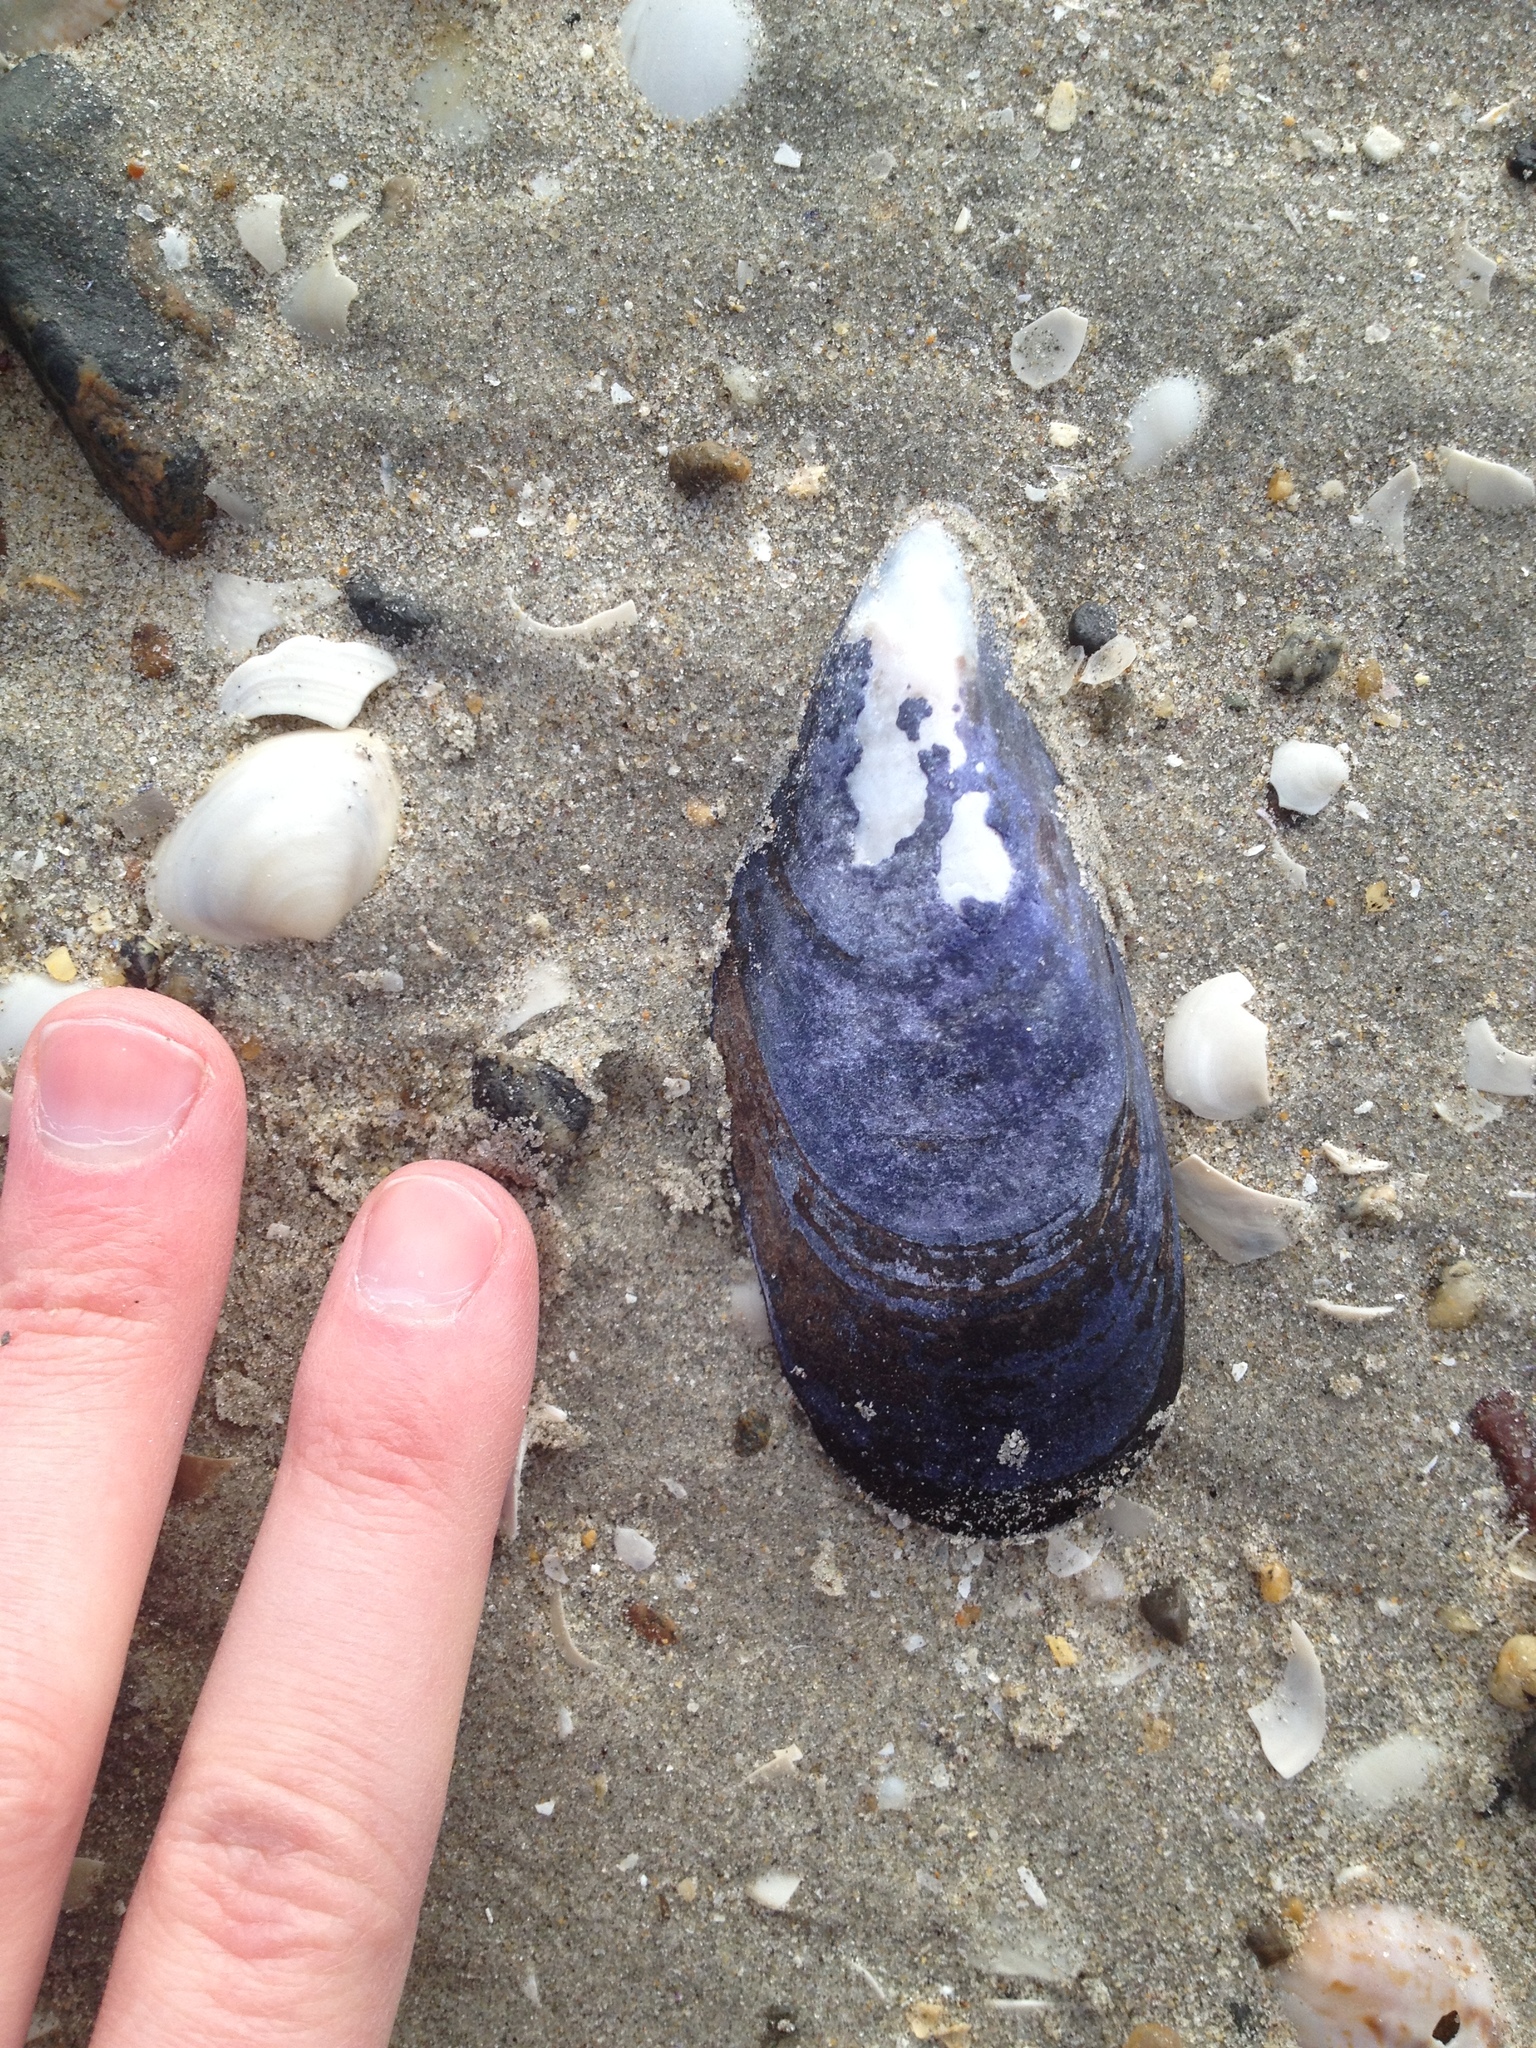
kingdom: Animalia
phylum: Mollusca
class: Bivalvia
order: Mytilida
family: Mytilidae
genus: Mytilus
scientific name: Mytilus edulis
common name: Blue mussel
